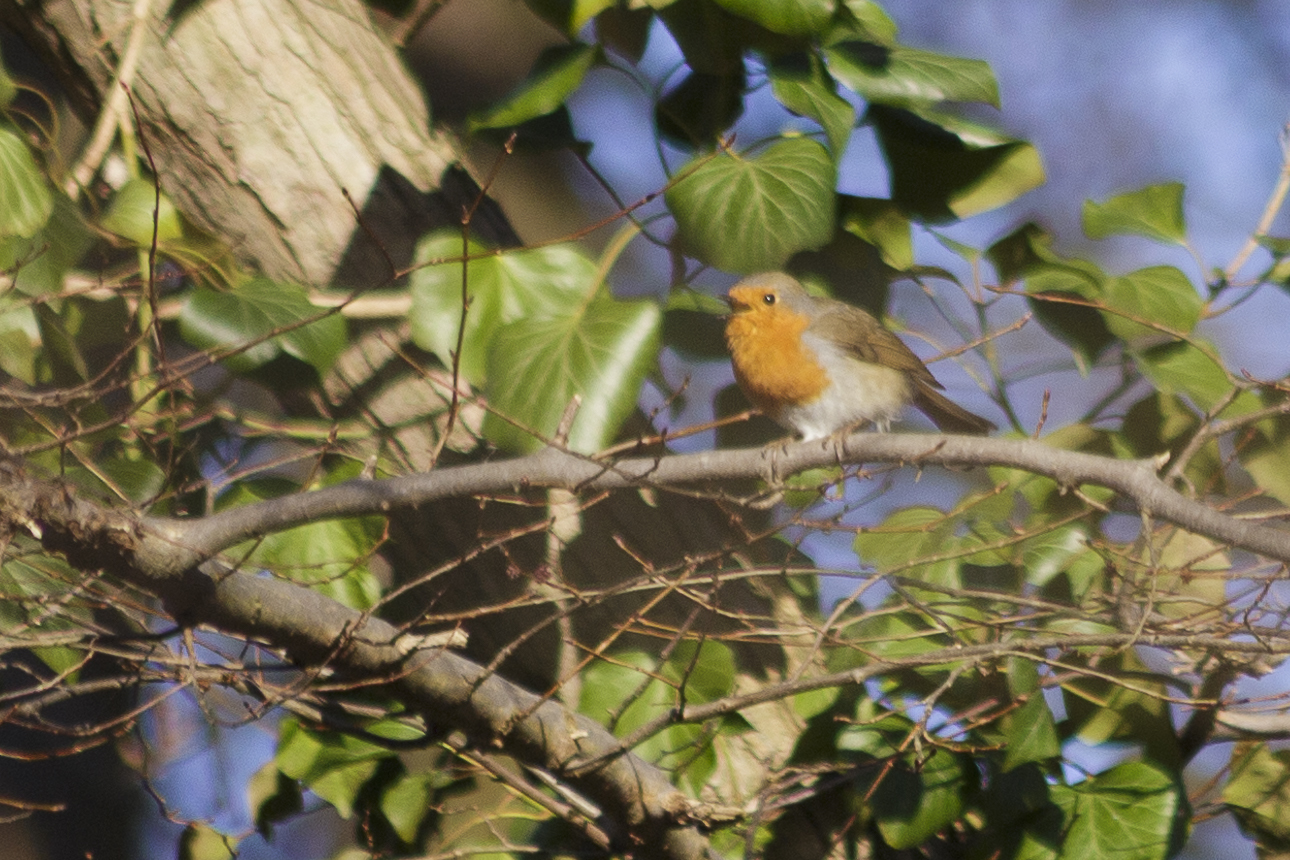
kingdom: Animalia
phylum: Chordata
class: Aves
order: Passeriformes
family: Muscicapidae
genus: Erithacus
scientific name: Erithacus rubecula
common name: European robin
